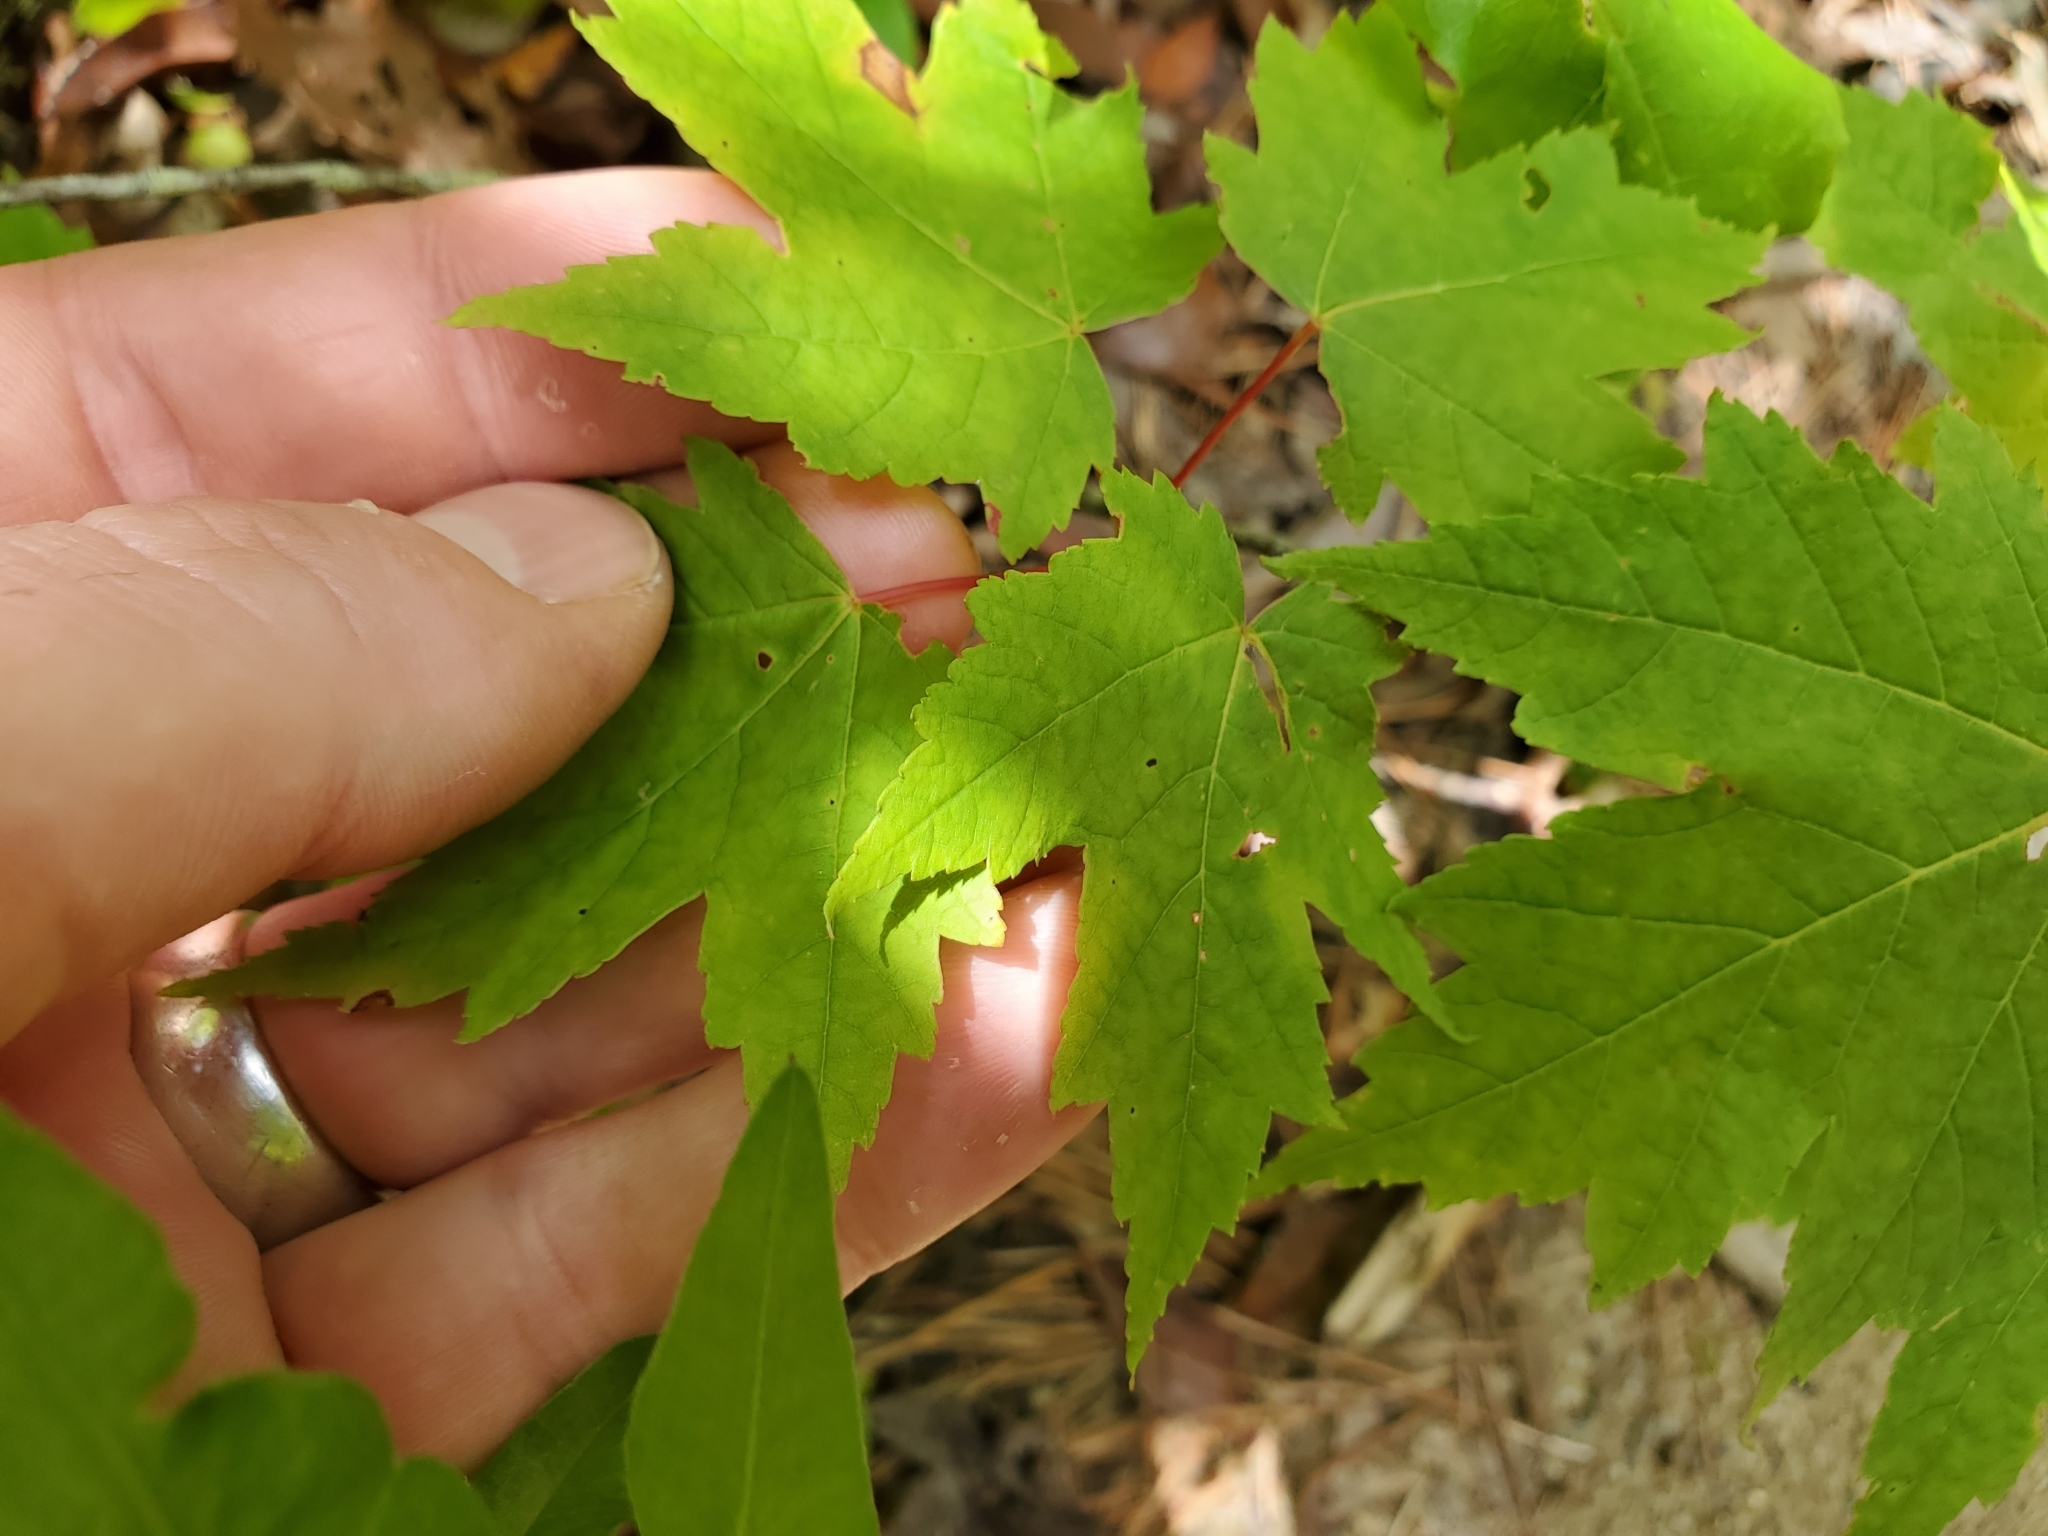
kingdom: Plantae
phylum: Tracheophyta
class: Magnoliopsida
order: Sapindales
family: Sapindaceae
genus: Acer
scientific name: Acer rubrum
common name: Red maple
